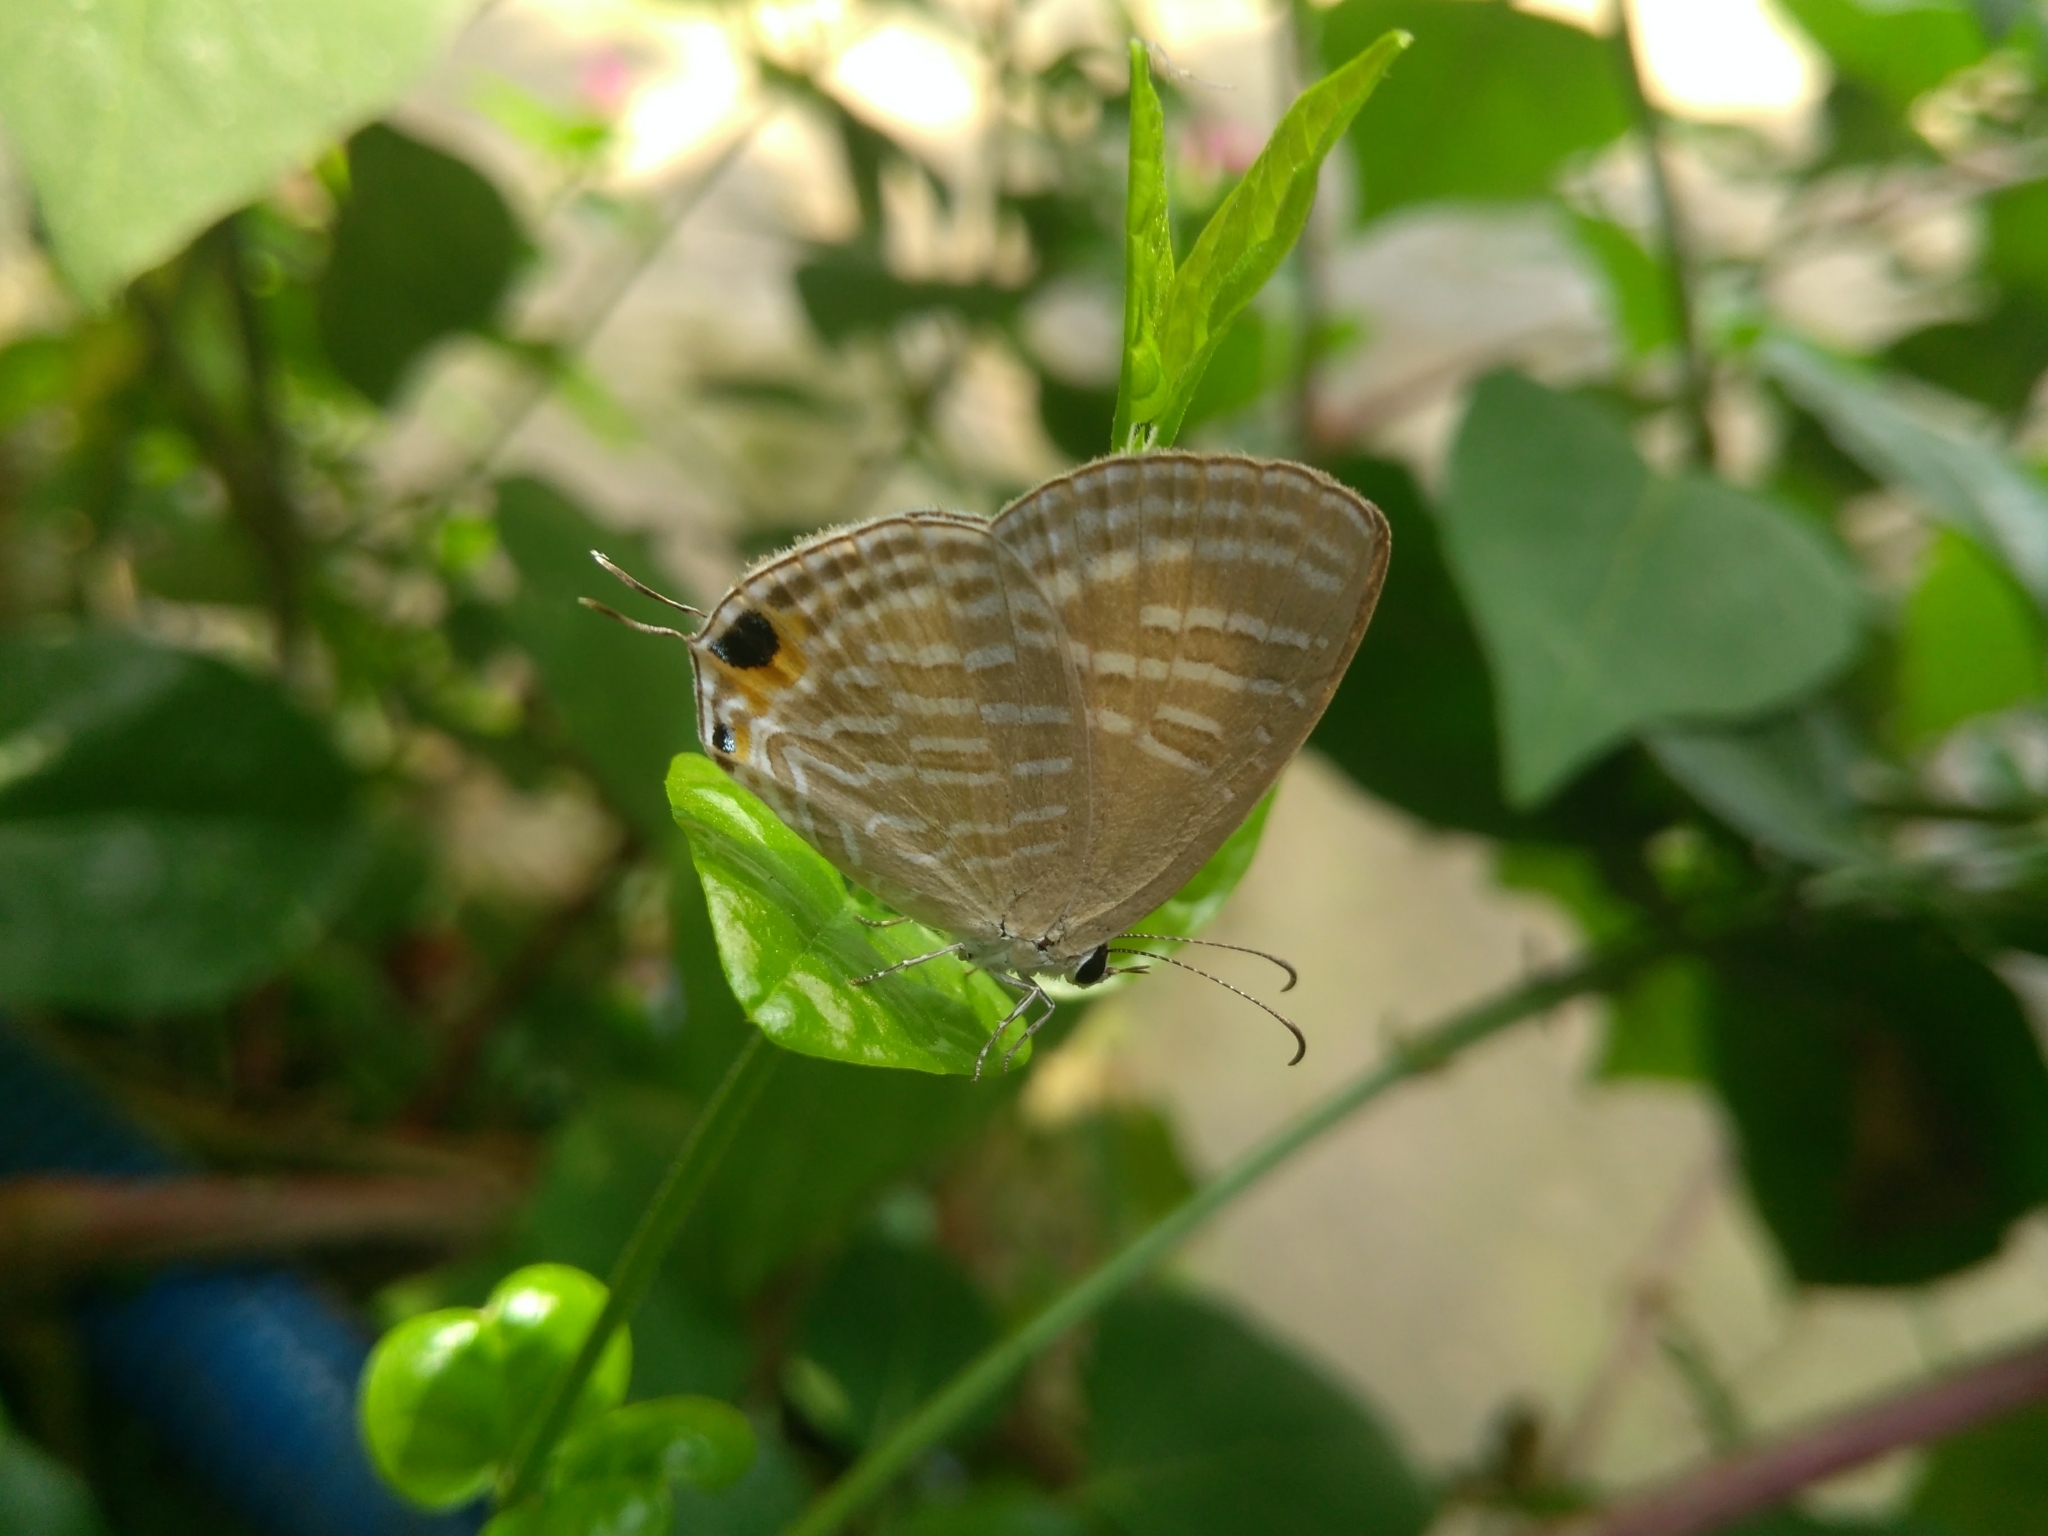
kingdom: Animalia
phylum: Arthropoda
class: Insecta
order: Lepidoptera
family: Lycaenidae
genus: Jamides
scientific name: Jamides celeno
